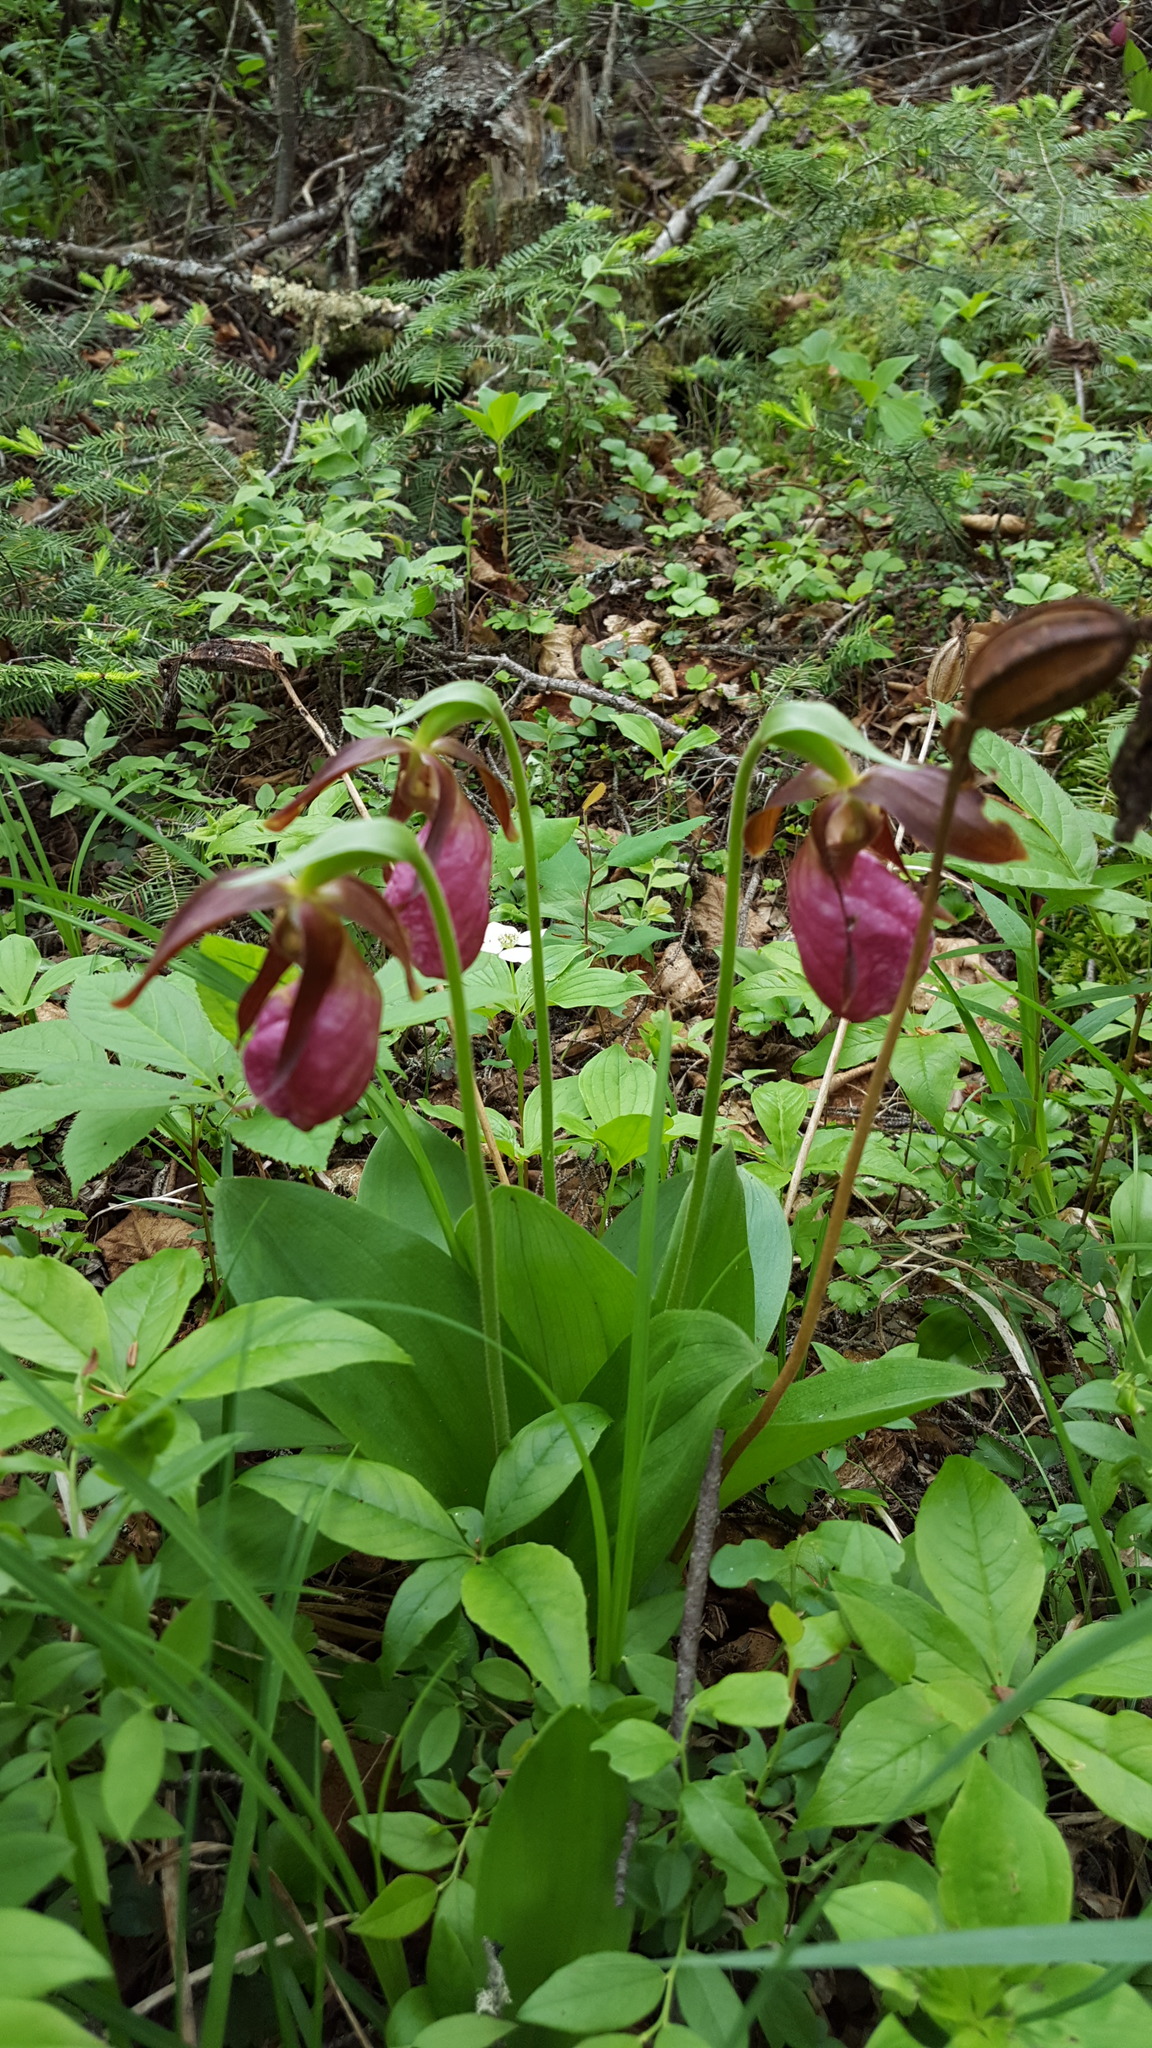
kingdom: Plantae
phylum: Tracheophyta
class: Liliopsida
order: Asparagales
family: Orchidaceae
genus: Cypripedium
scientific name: Cypripedium acaule
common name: Pink lady's-slipper
